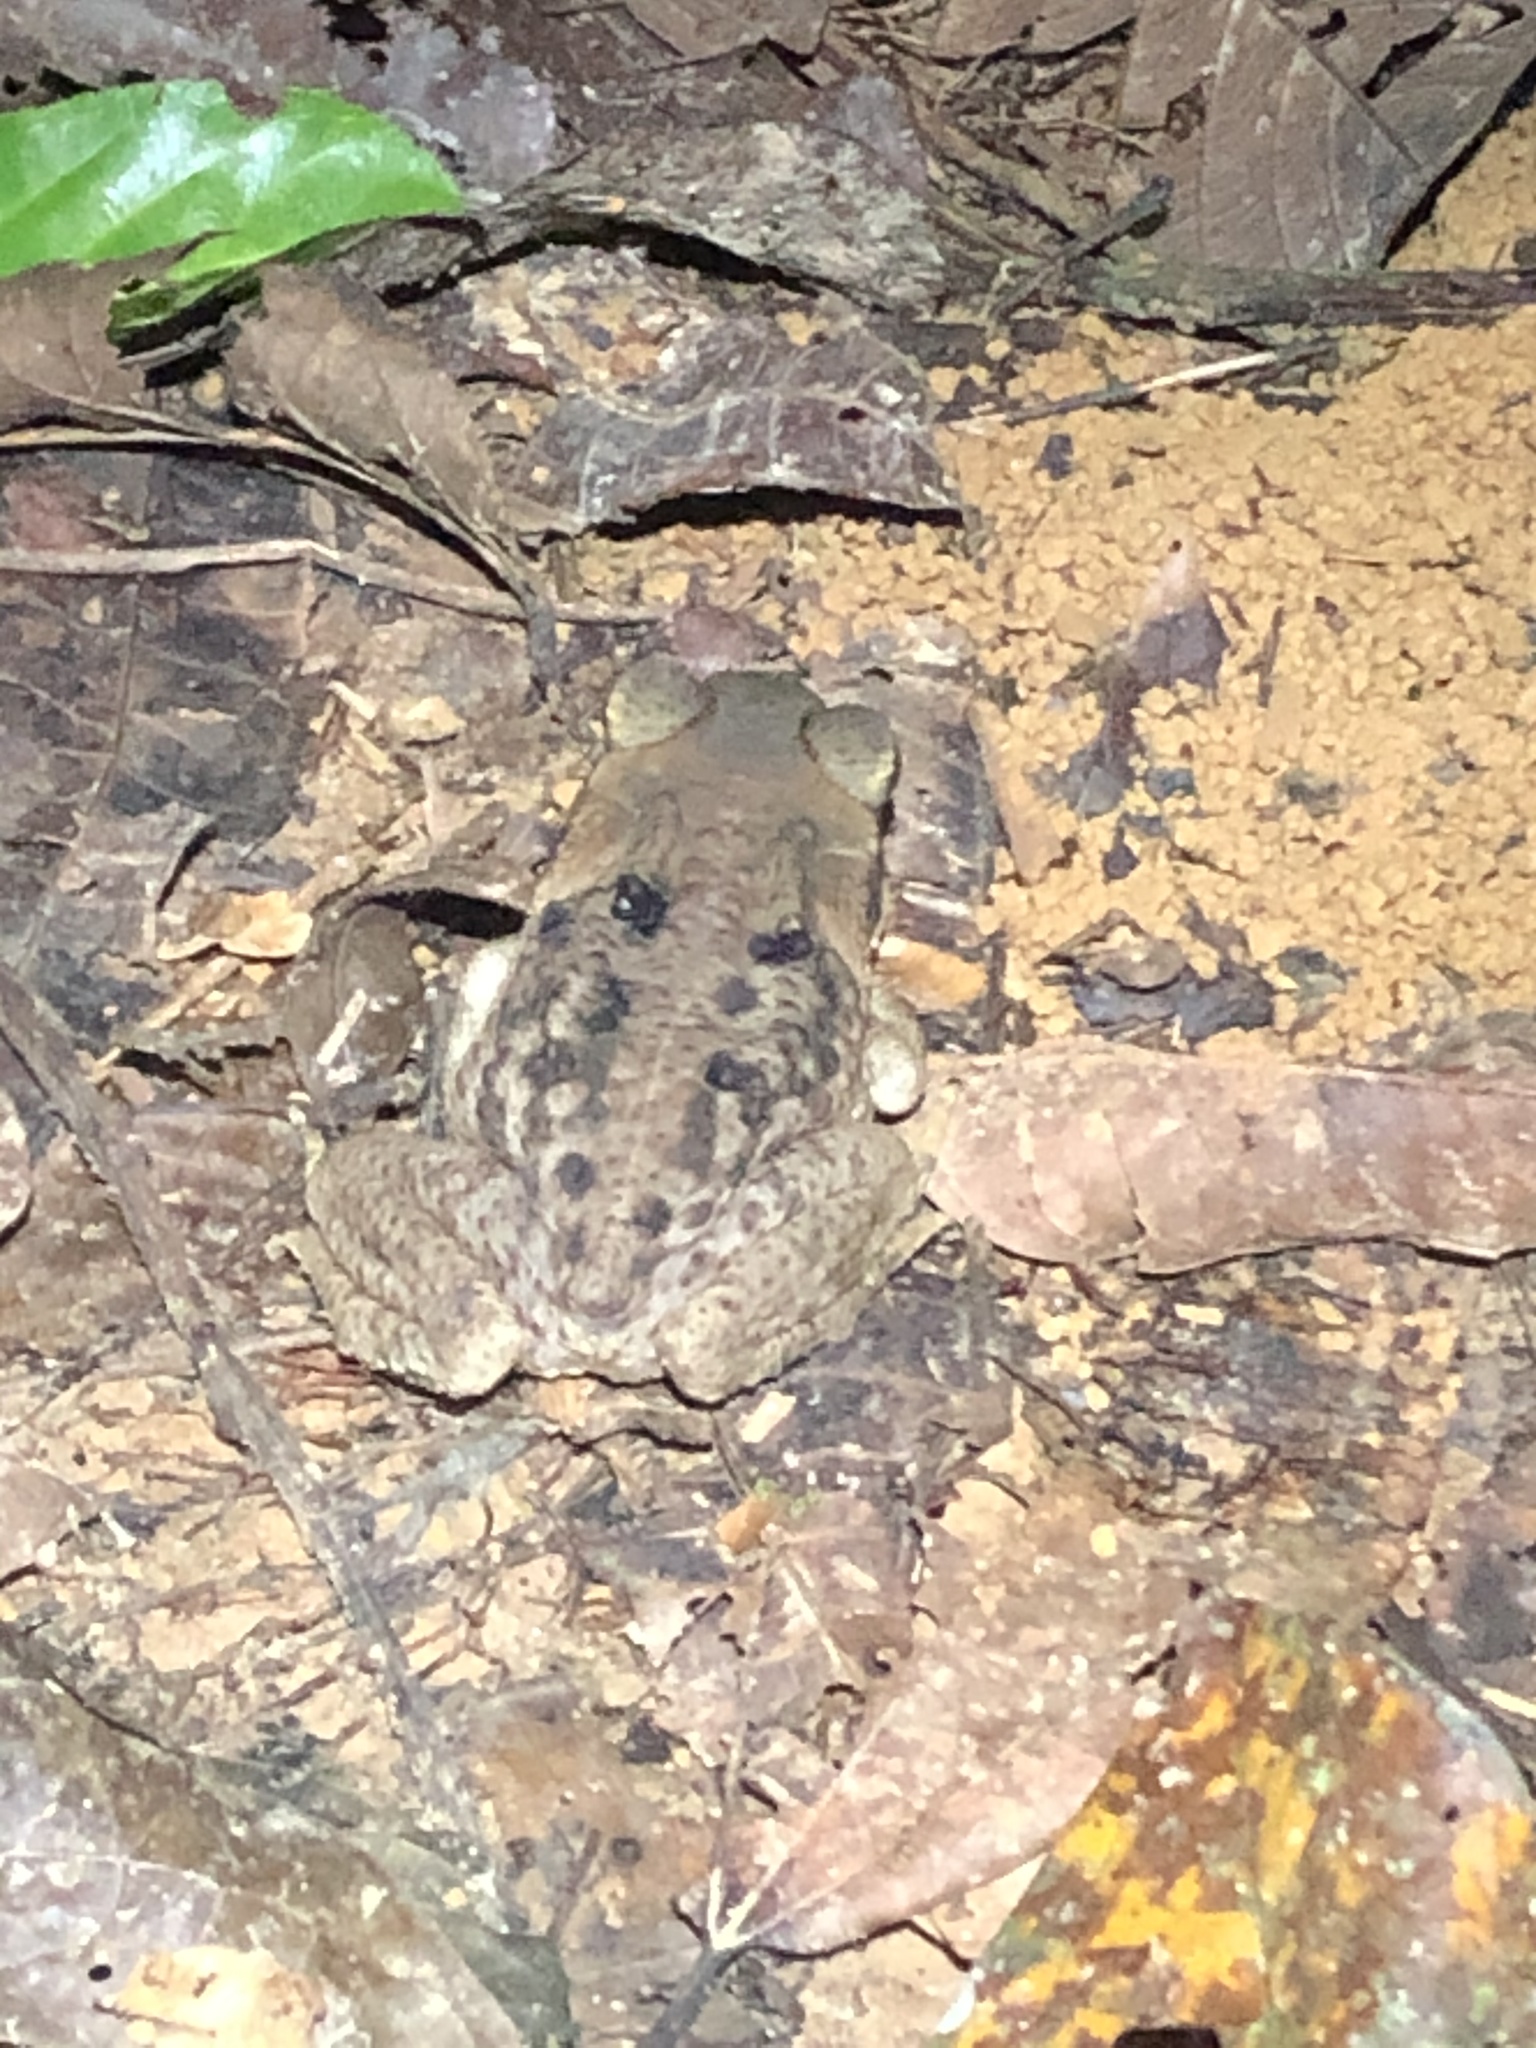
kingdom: Animalia
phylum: Chordata
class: Amphibia
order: Anura
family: Bufonidae
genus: Rhinella
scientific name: Rhinella marina
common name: Cane toad
